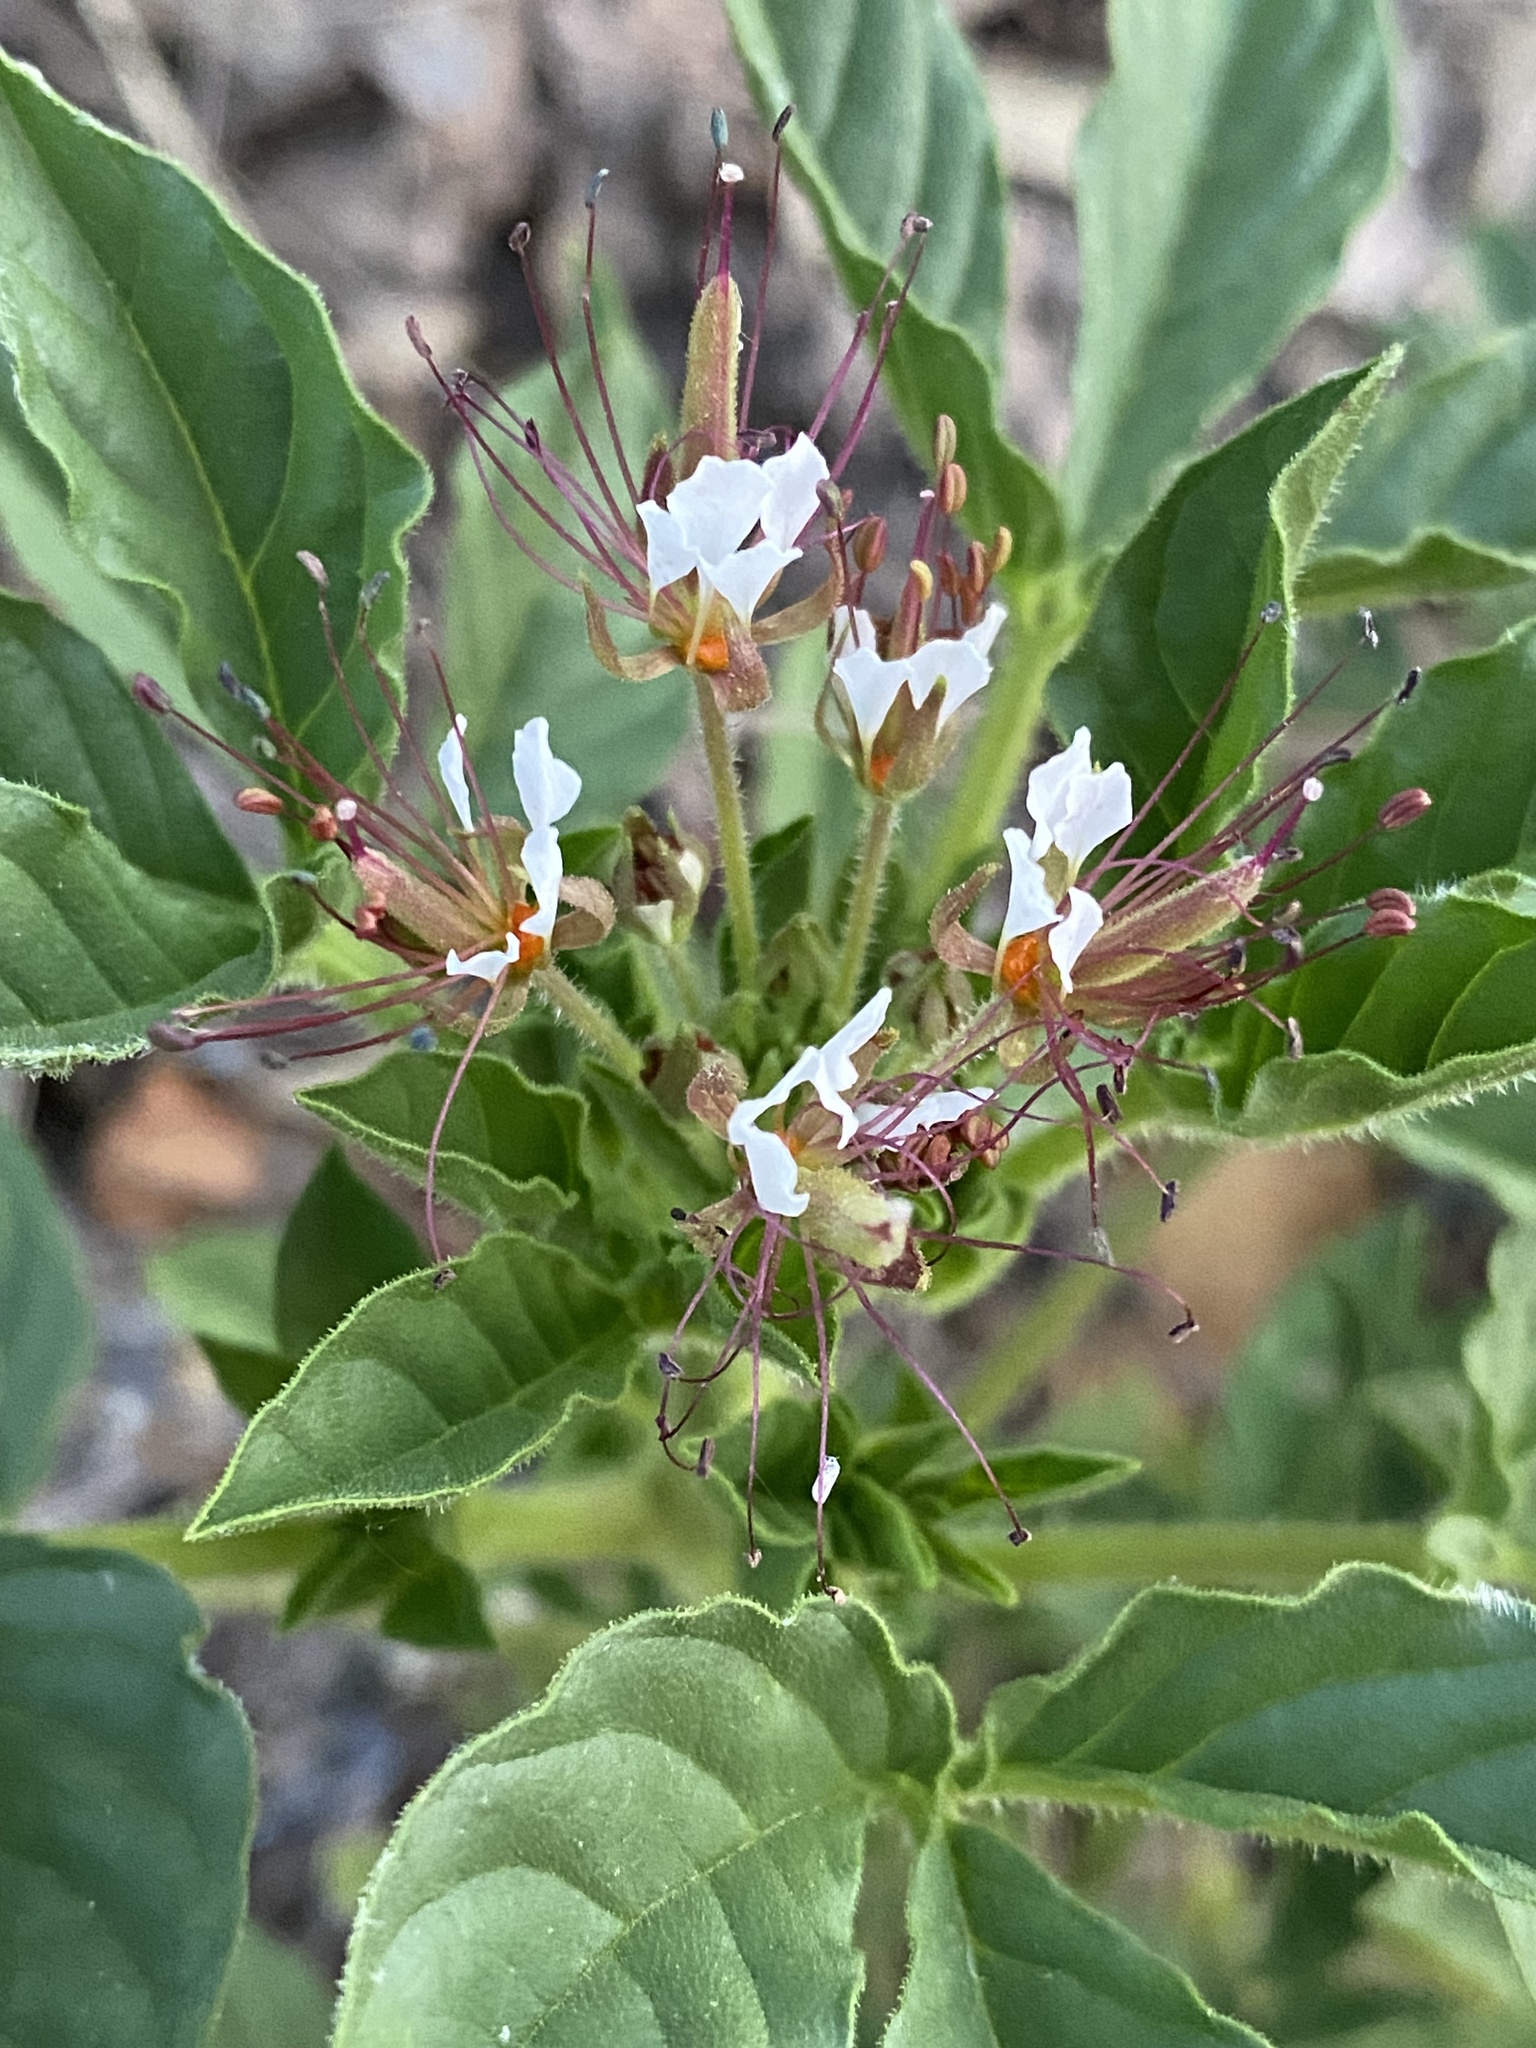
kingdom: Plantae
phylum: Tracheophyta
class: Magnoliopsida
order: Brassicales
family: Cleomaceae
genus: Polanisia
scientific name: Polanisia dodecandra
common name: Clammyweed
